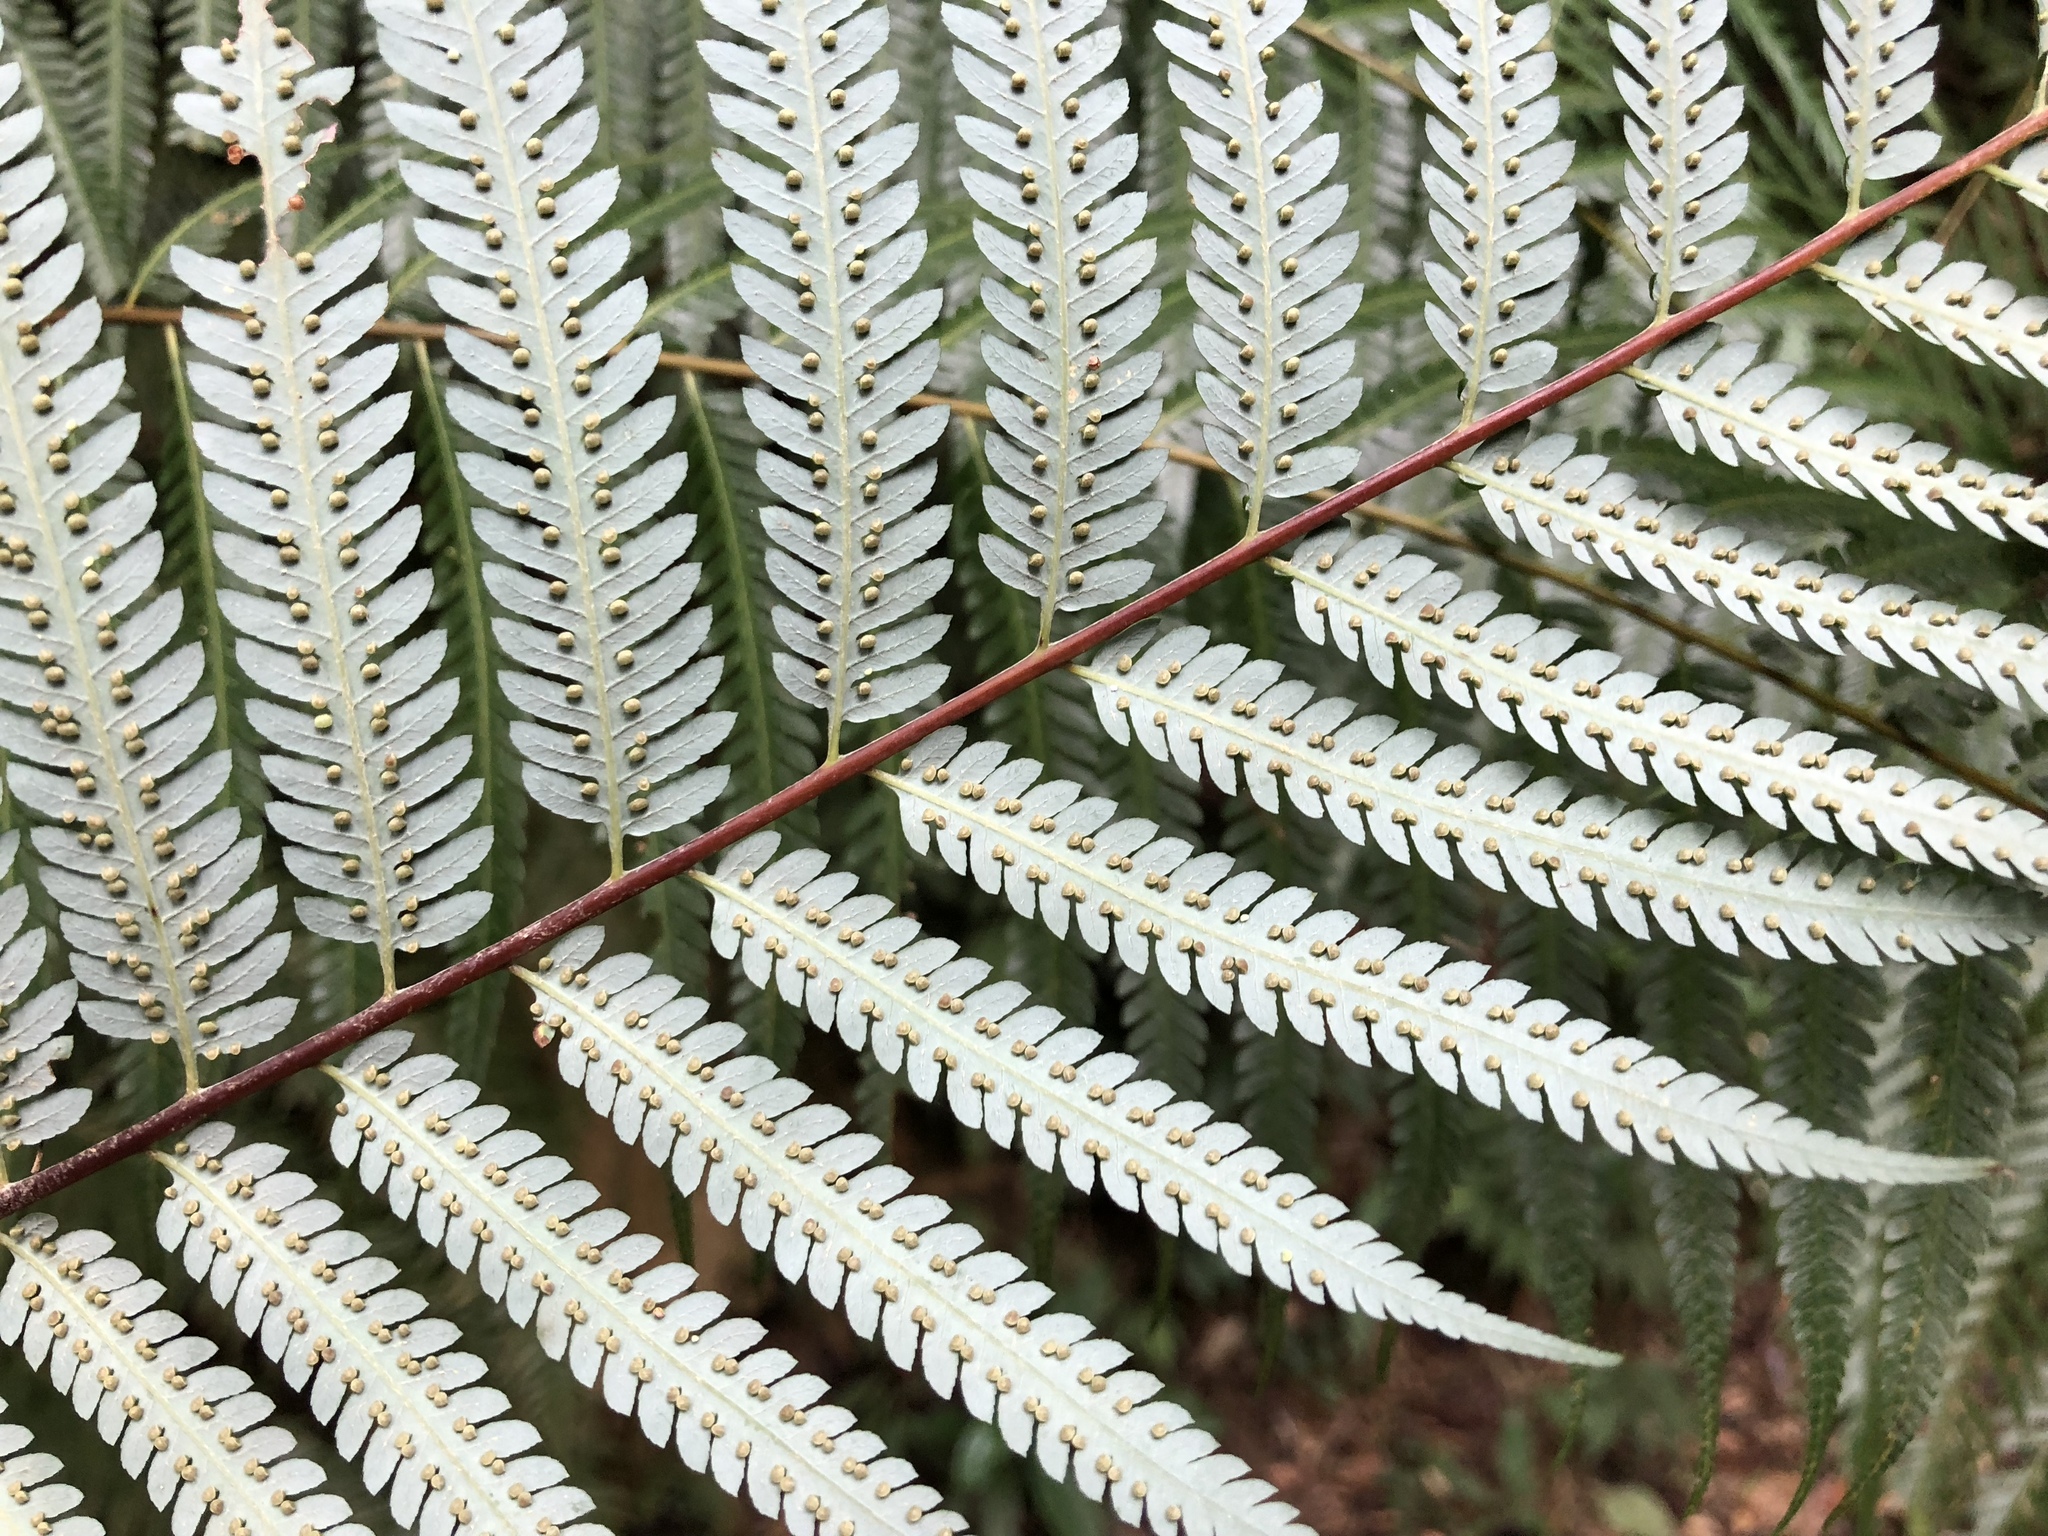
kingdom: Plantae
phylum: Tracheophyta
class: Polypodiopsida
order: Cyatheales
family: Cibotiaceae
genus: Cibotium
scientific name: Cibotium taiwanense
